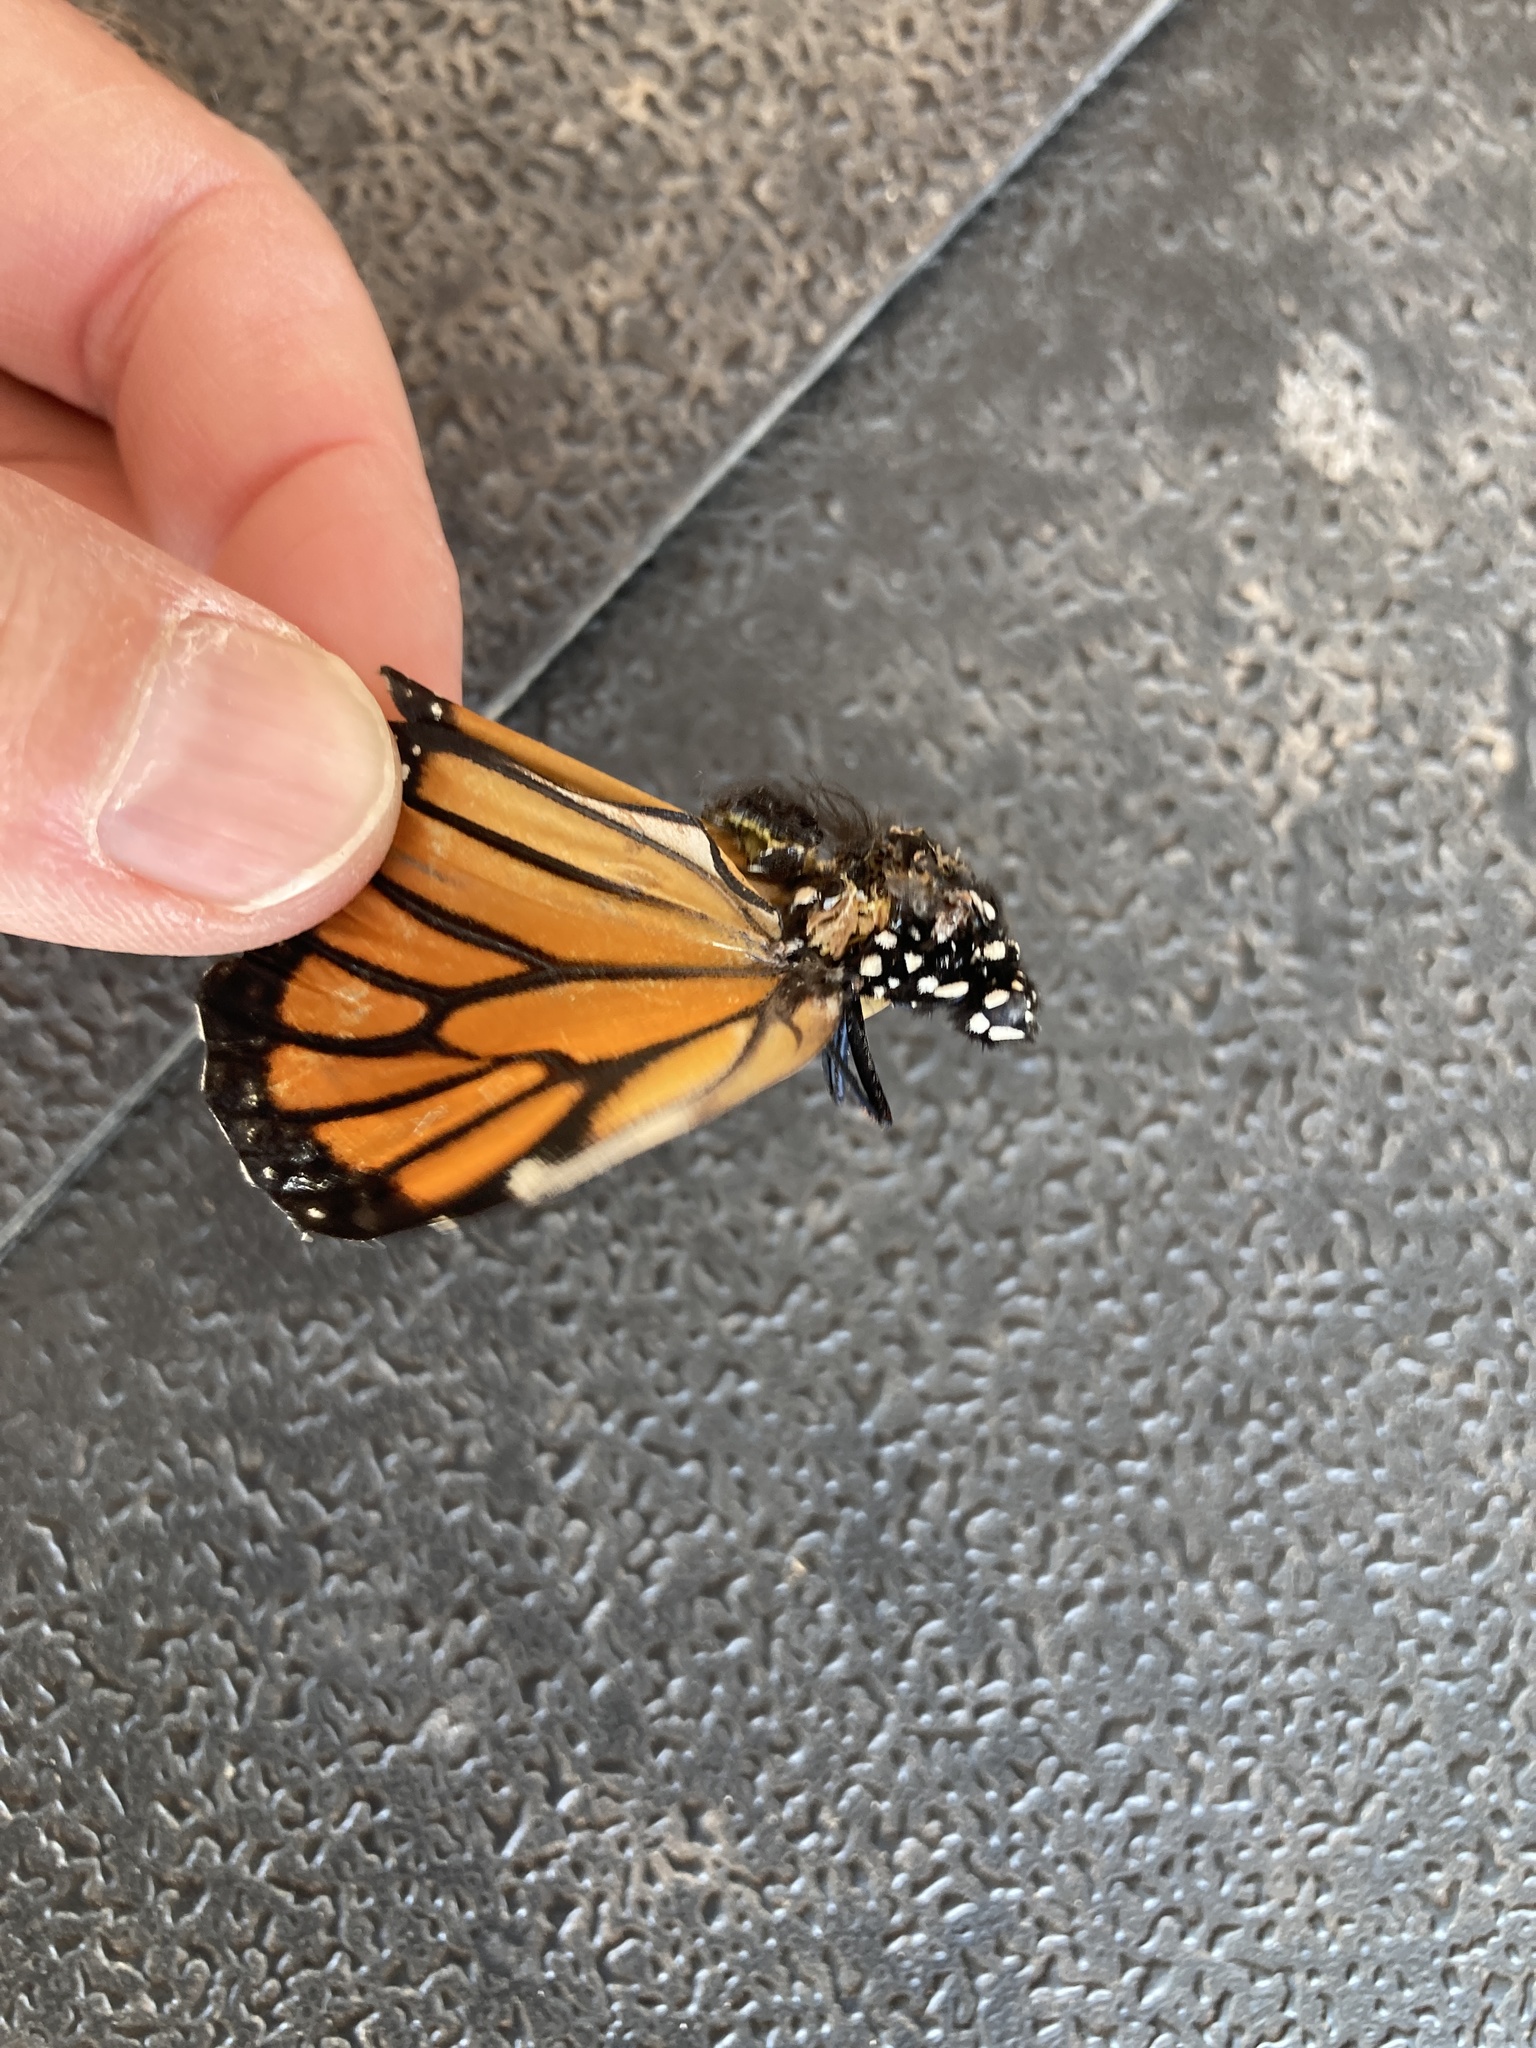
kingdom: Animalia
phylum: Arthropoda
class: Insecta
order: Lepidoptera
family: Nymphalidae
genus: Danaus
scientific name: Danaus plexippus
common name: Monarch
